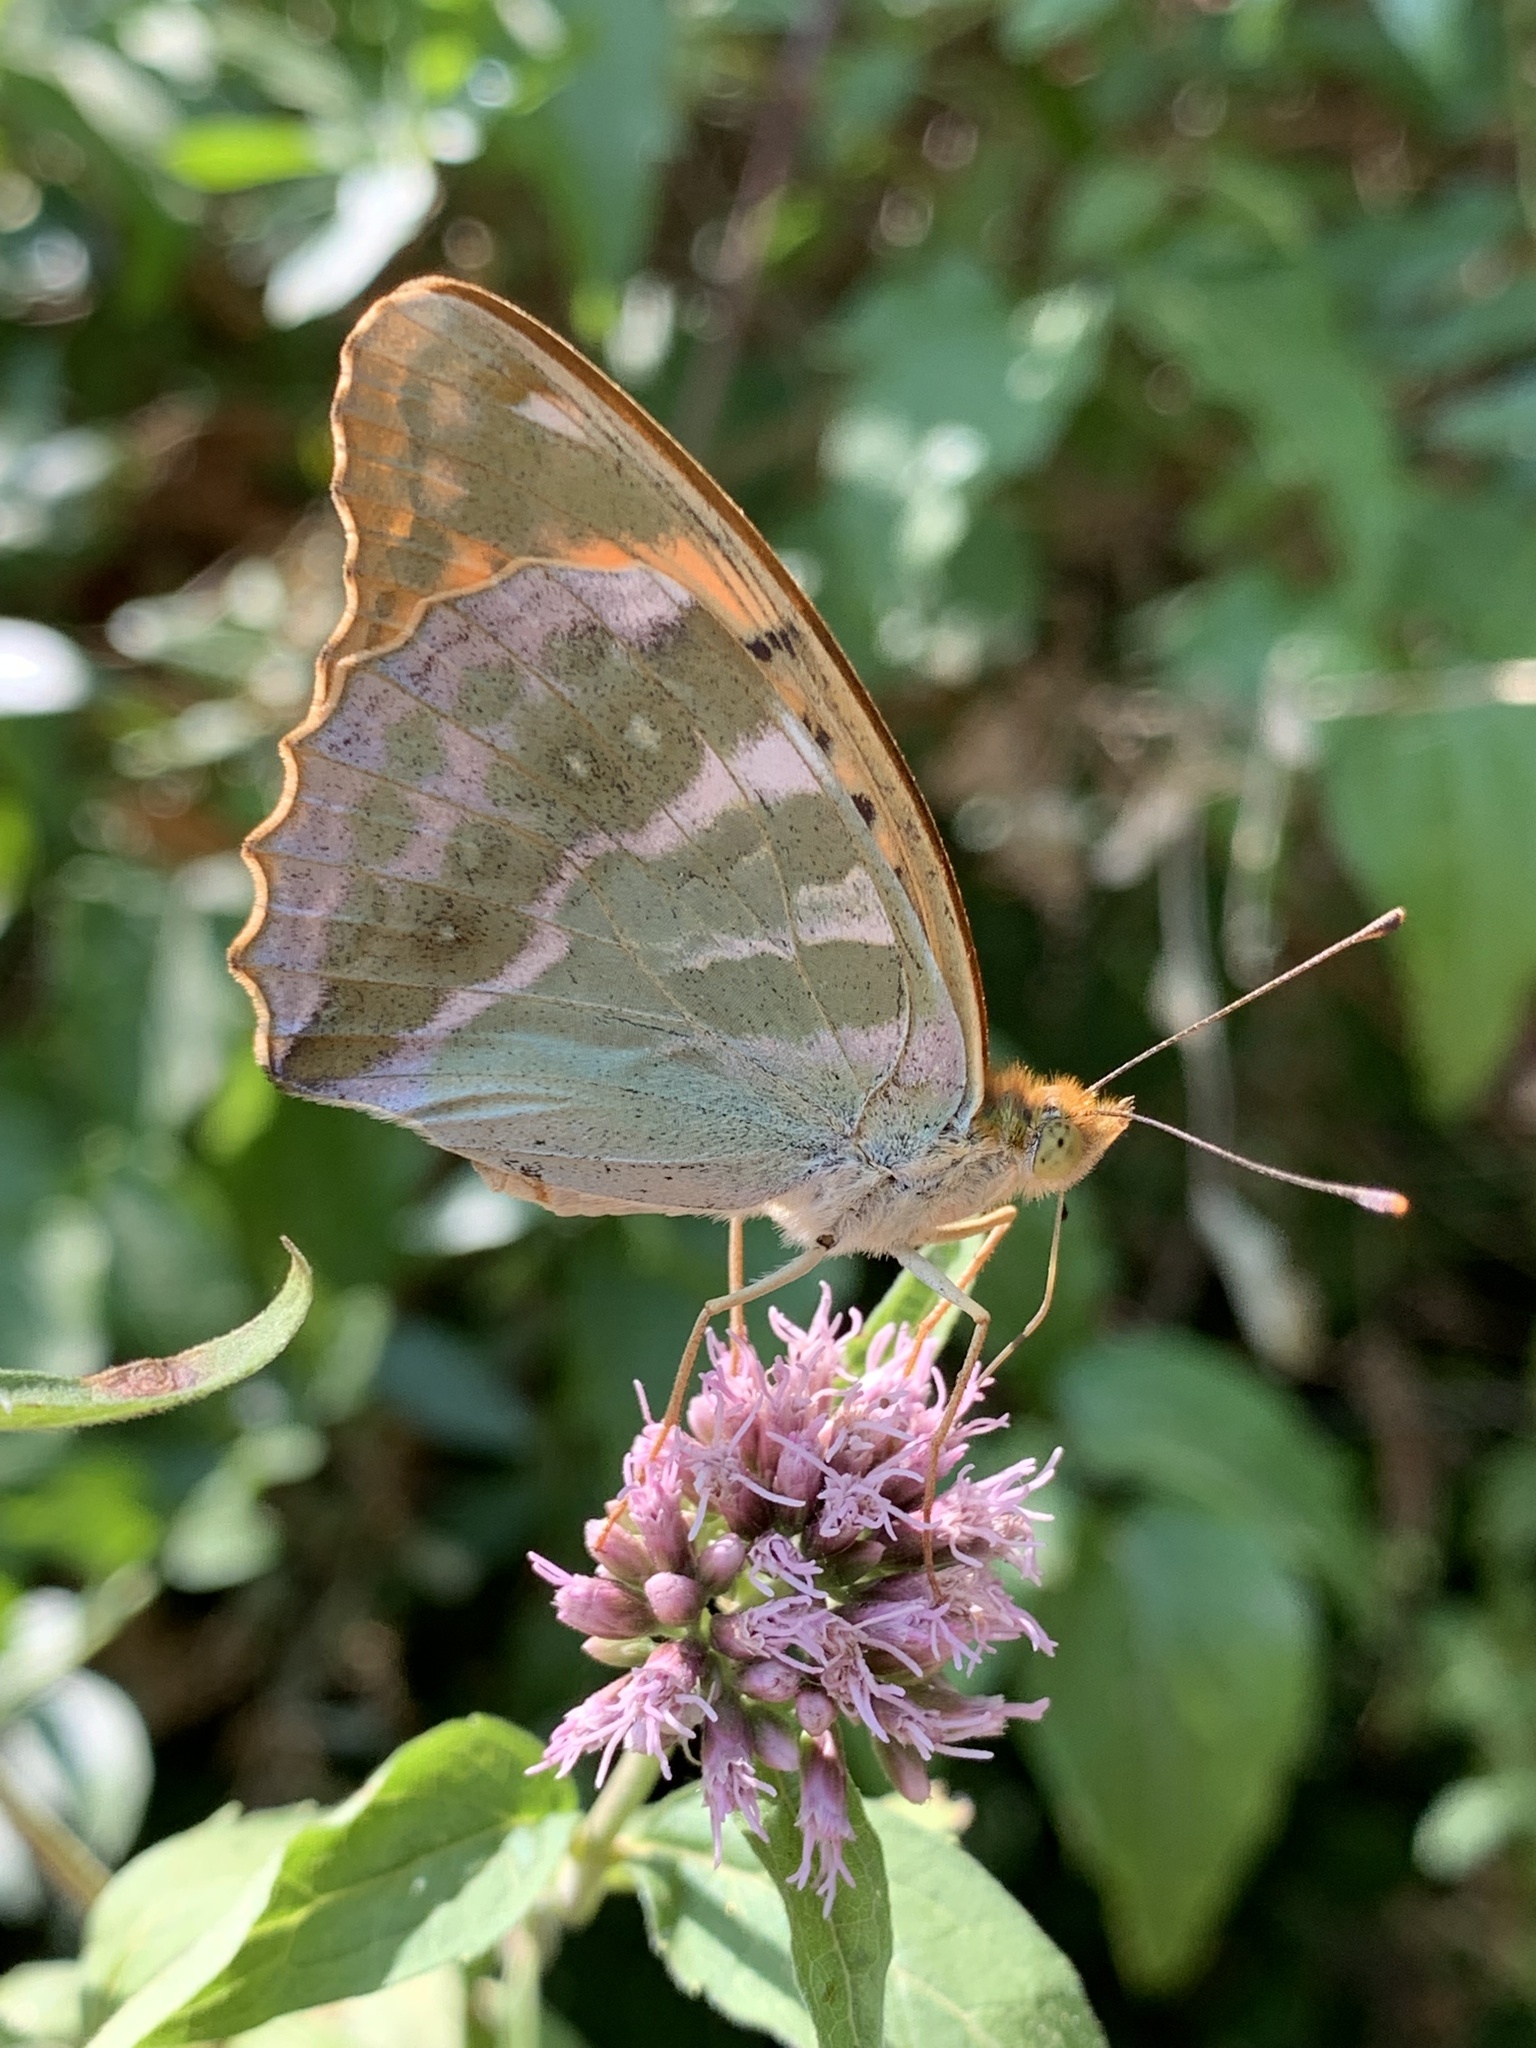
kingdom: Animalia
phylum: Arthropoda
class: Insecta
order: Lepidoptera
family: Nymphalidae
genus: Argynnis
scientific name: Argynnis paphia
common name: Silver-washed fritillary
